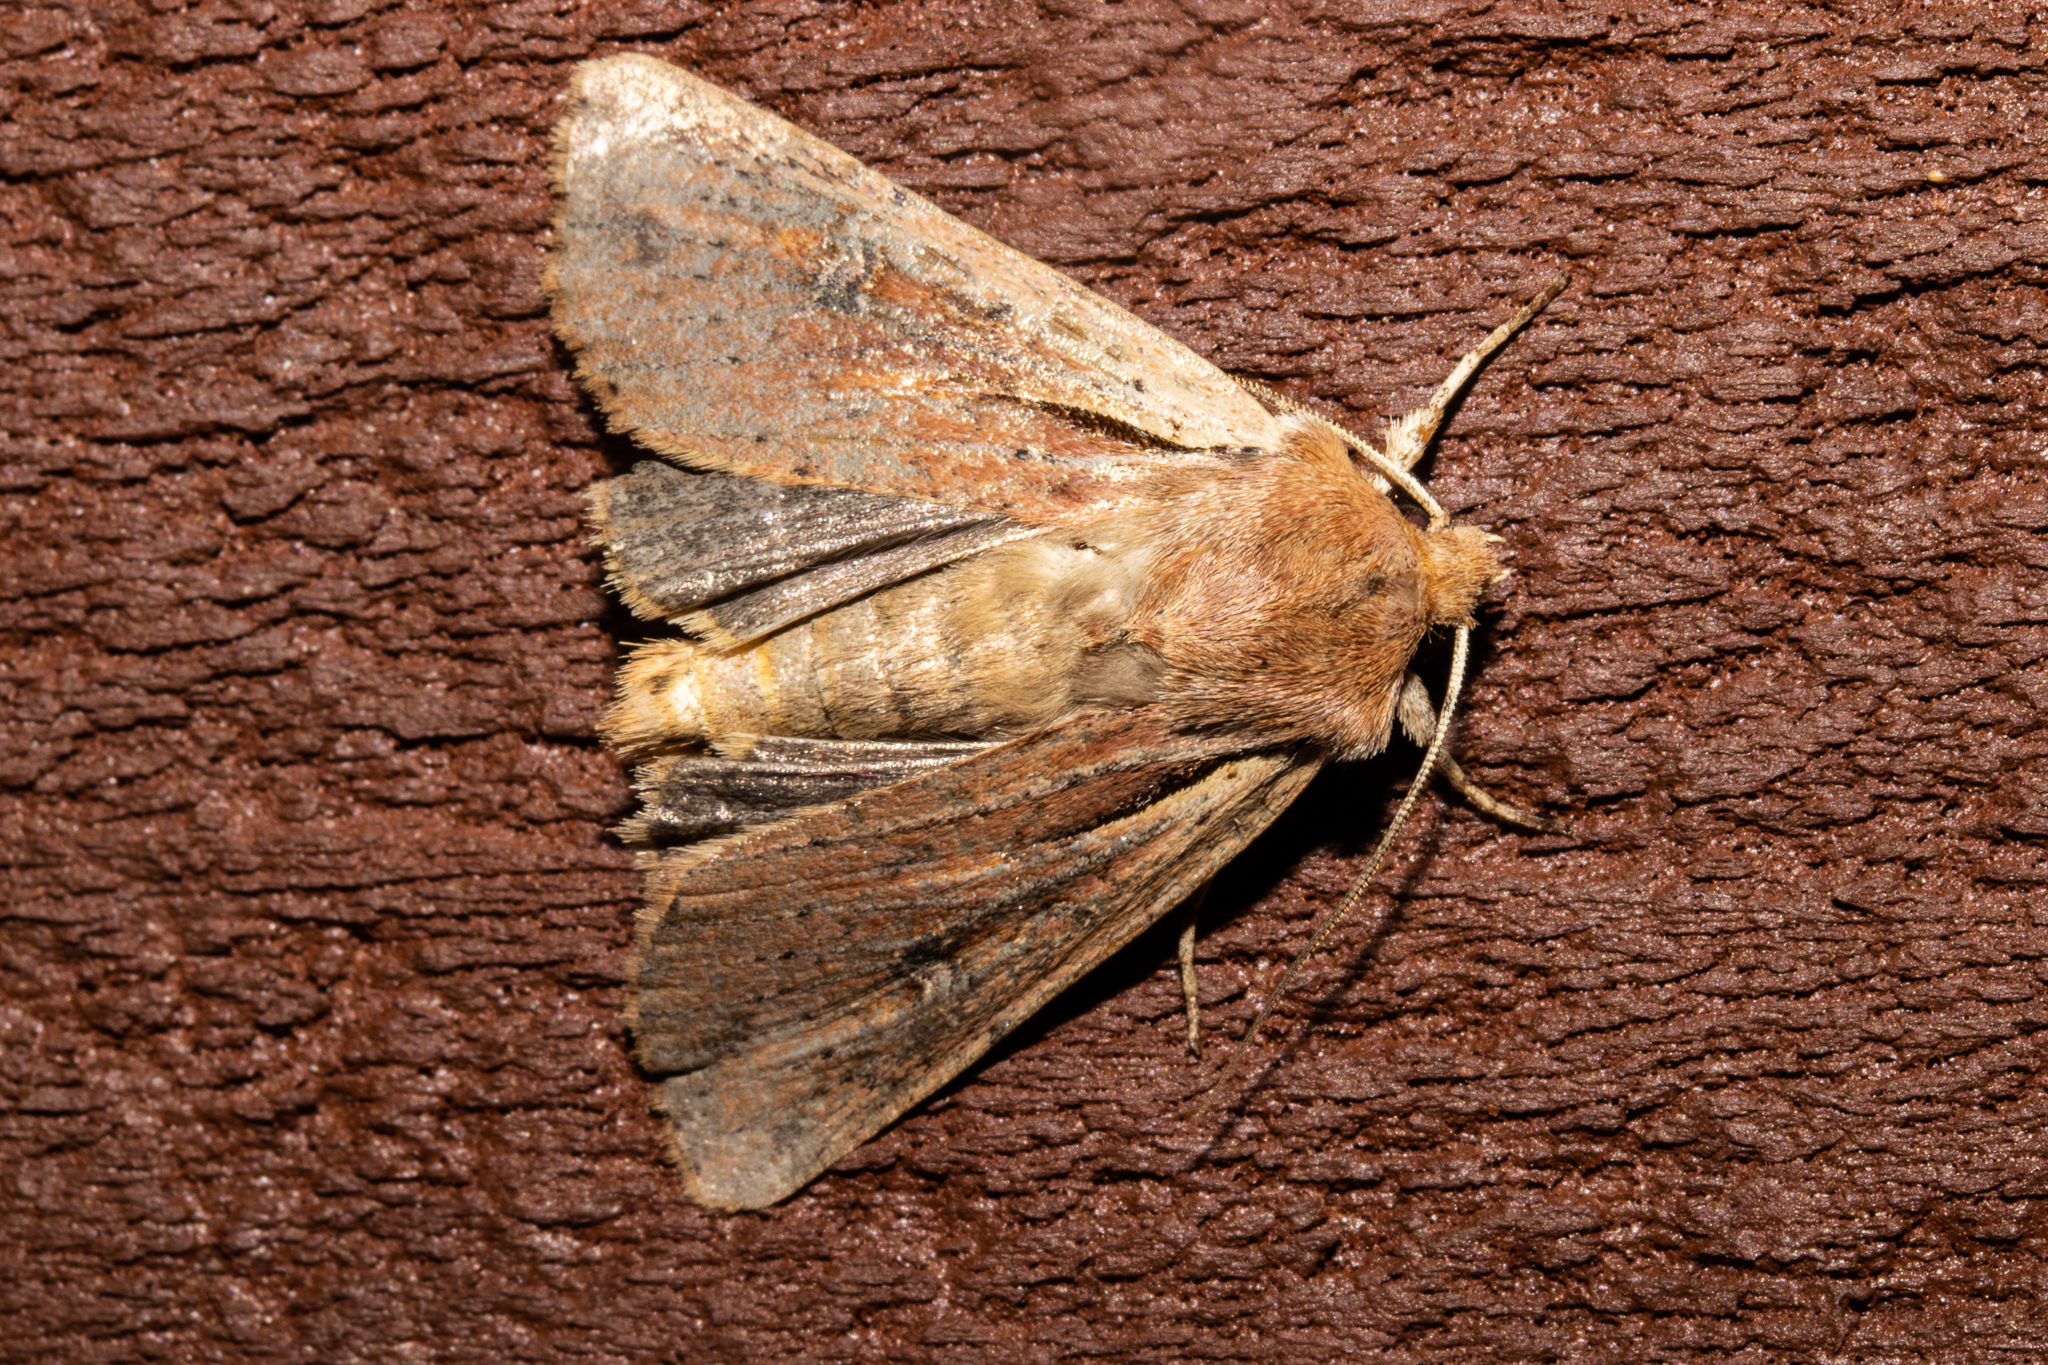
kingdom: Animalia
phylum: Arthropoda
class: Insecta
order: Lepidoptera
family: Noctuidae
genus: Ichneutica
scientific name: Ichneutica atristriga
